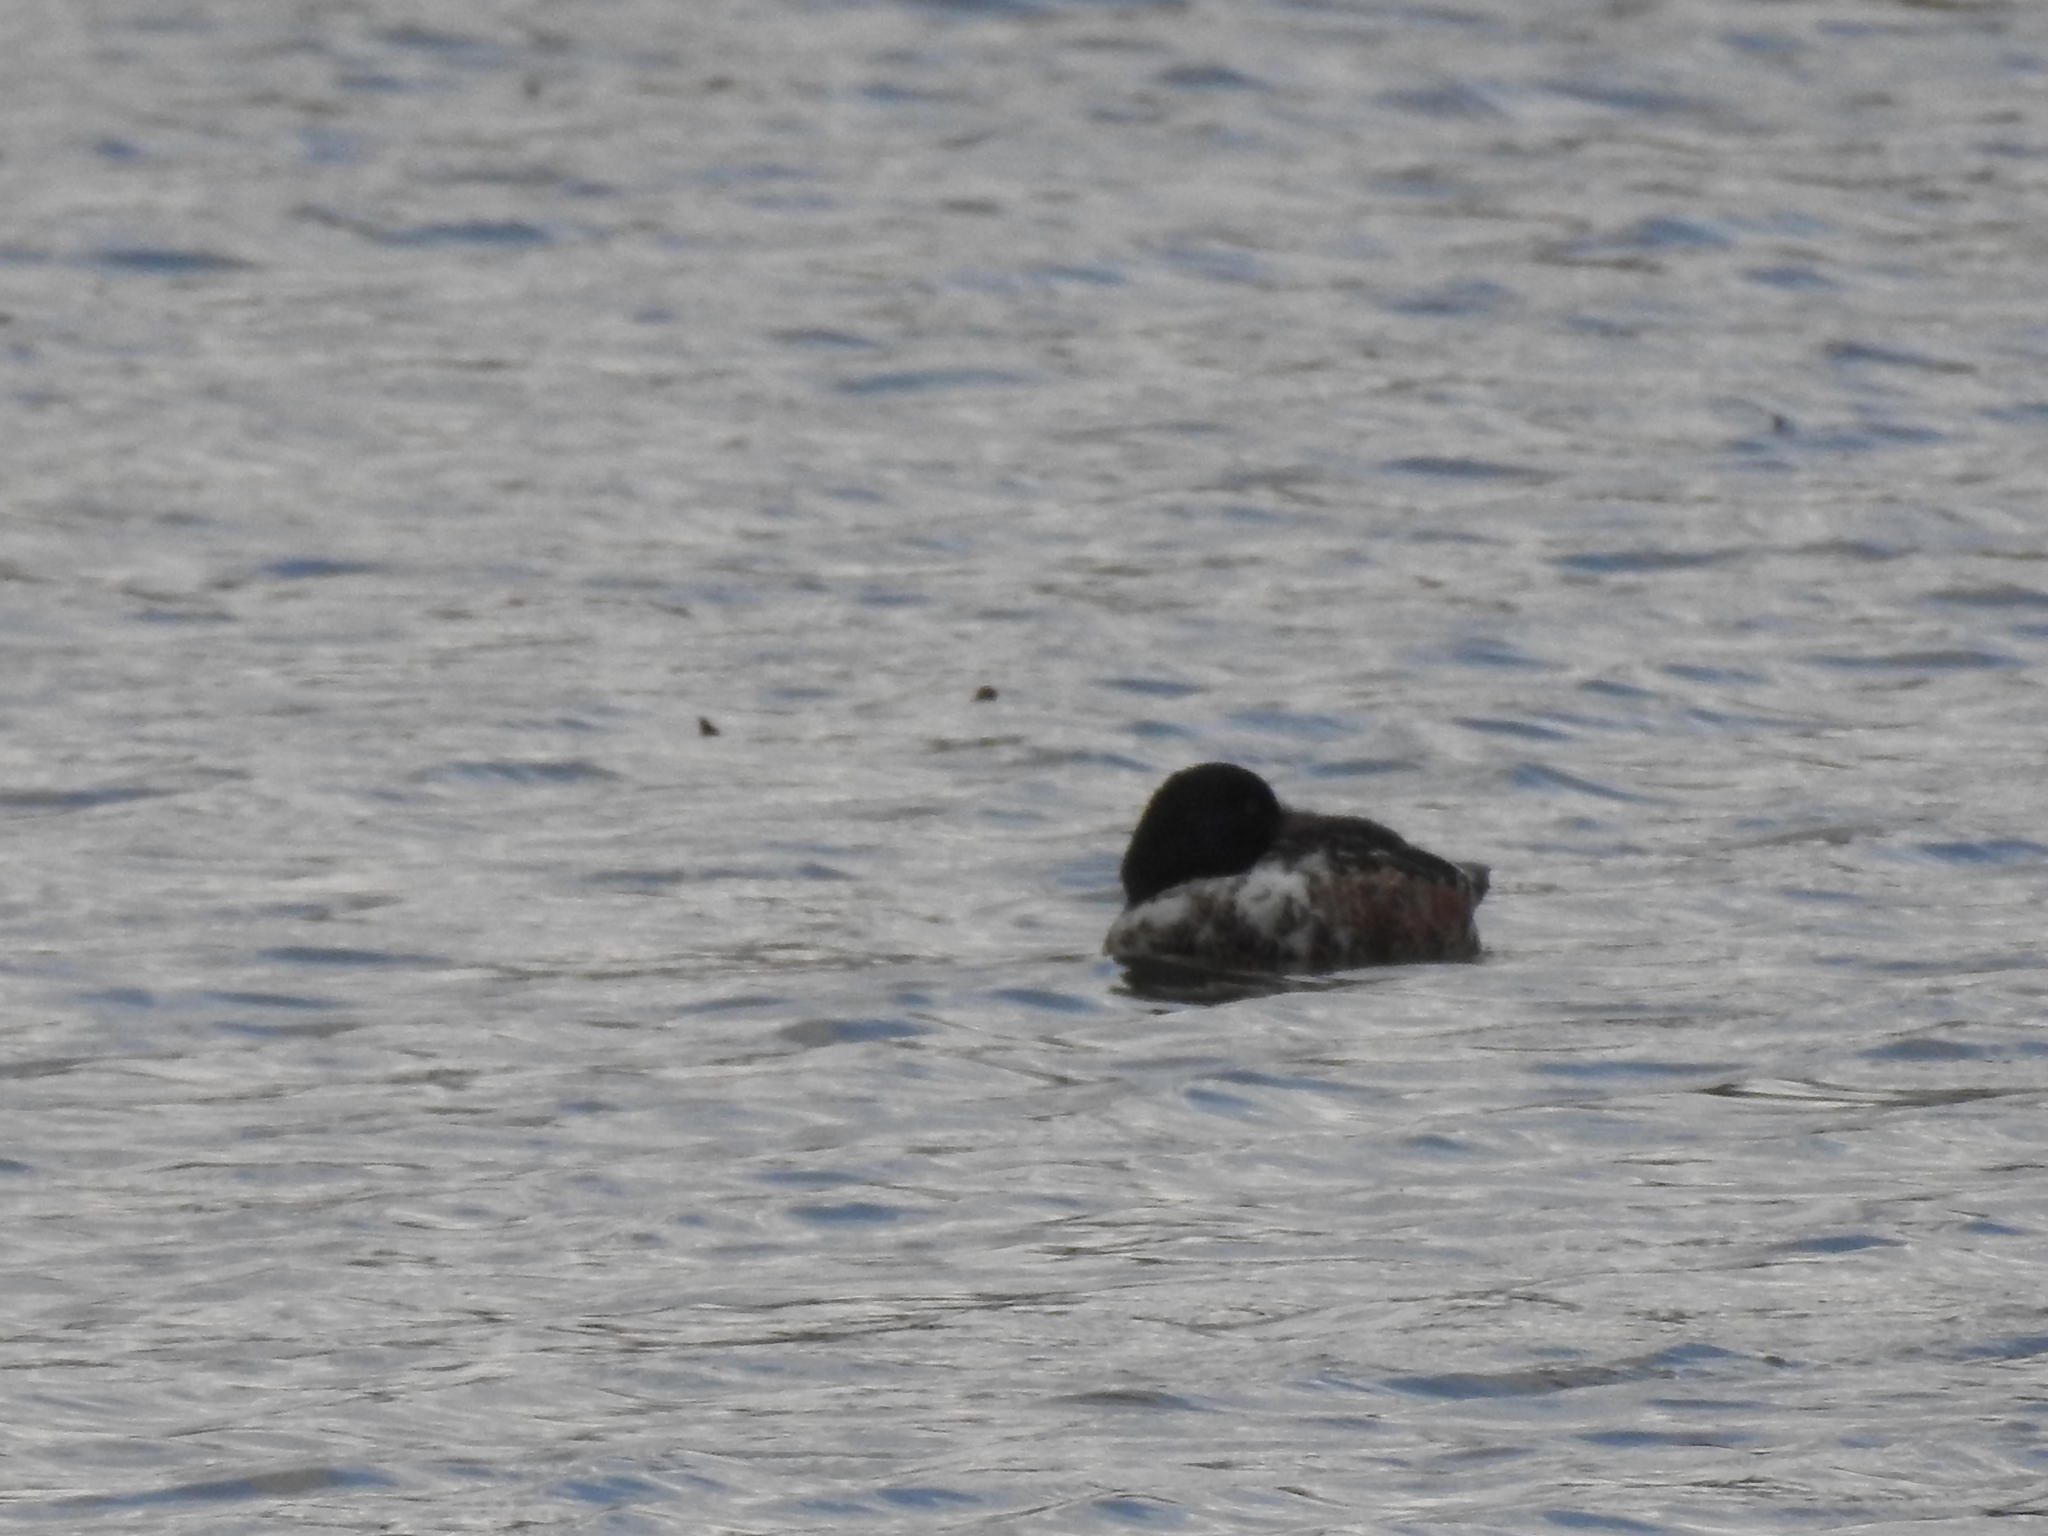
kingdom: Animalia
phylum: Chordata
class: Aves
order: Anseriformes
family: Anatidae
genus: Spatula
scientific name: Spatula clypeata
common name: Northern shoveler
